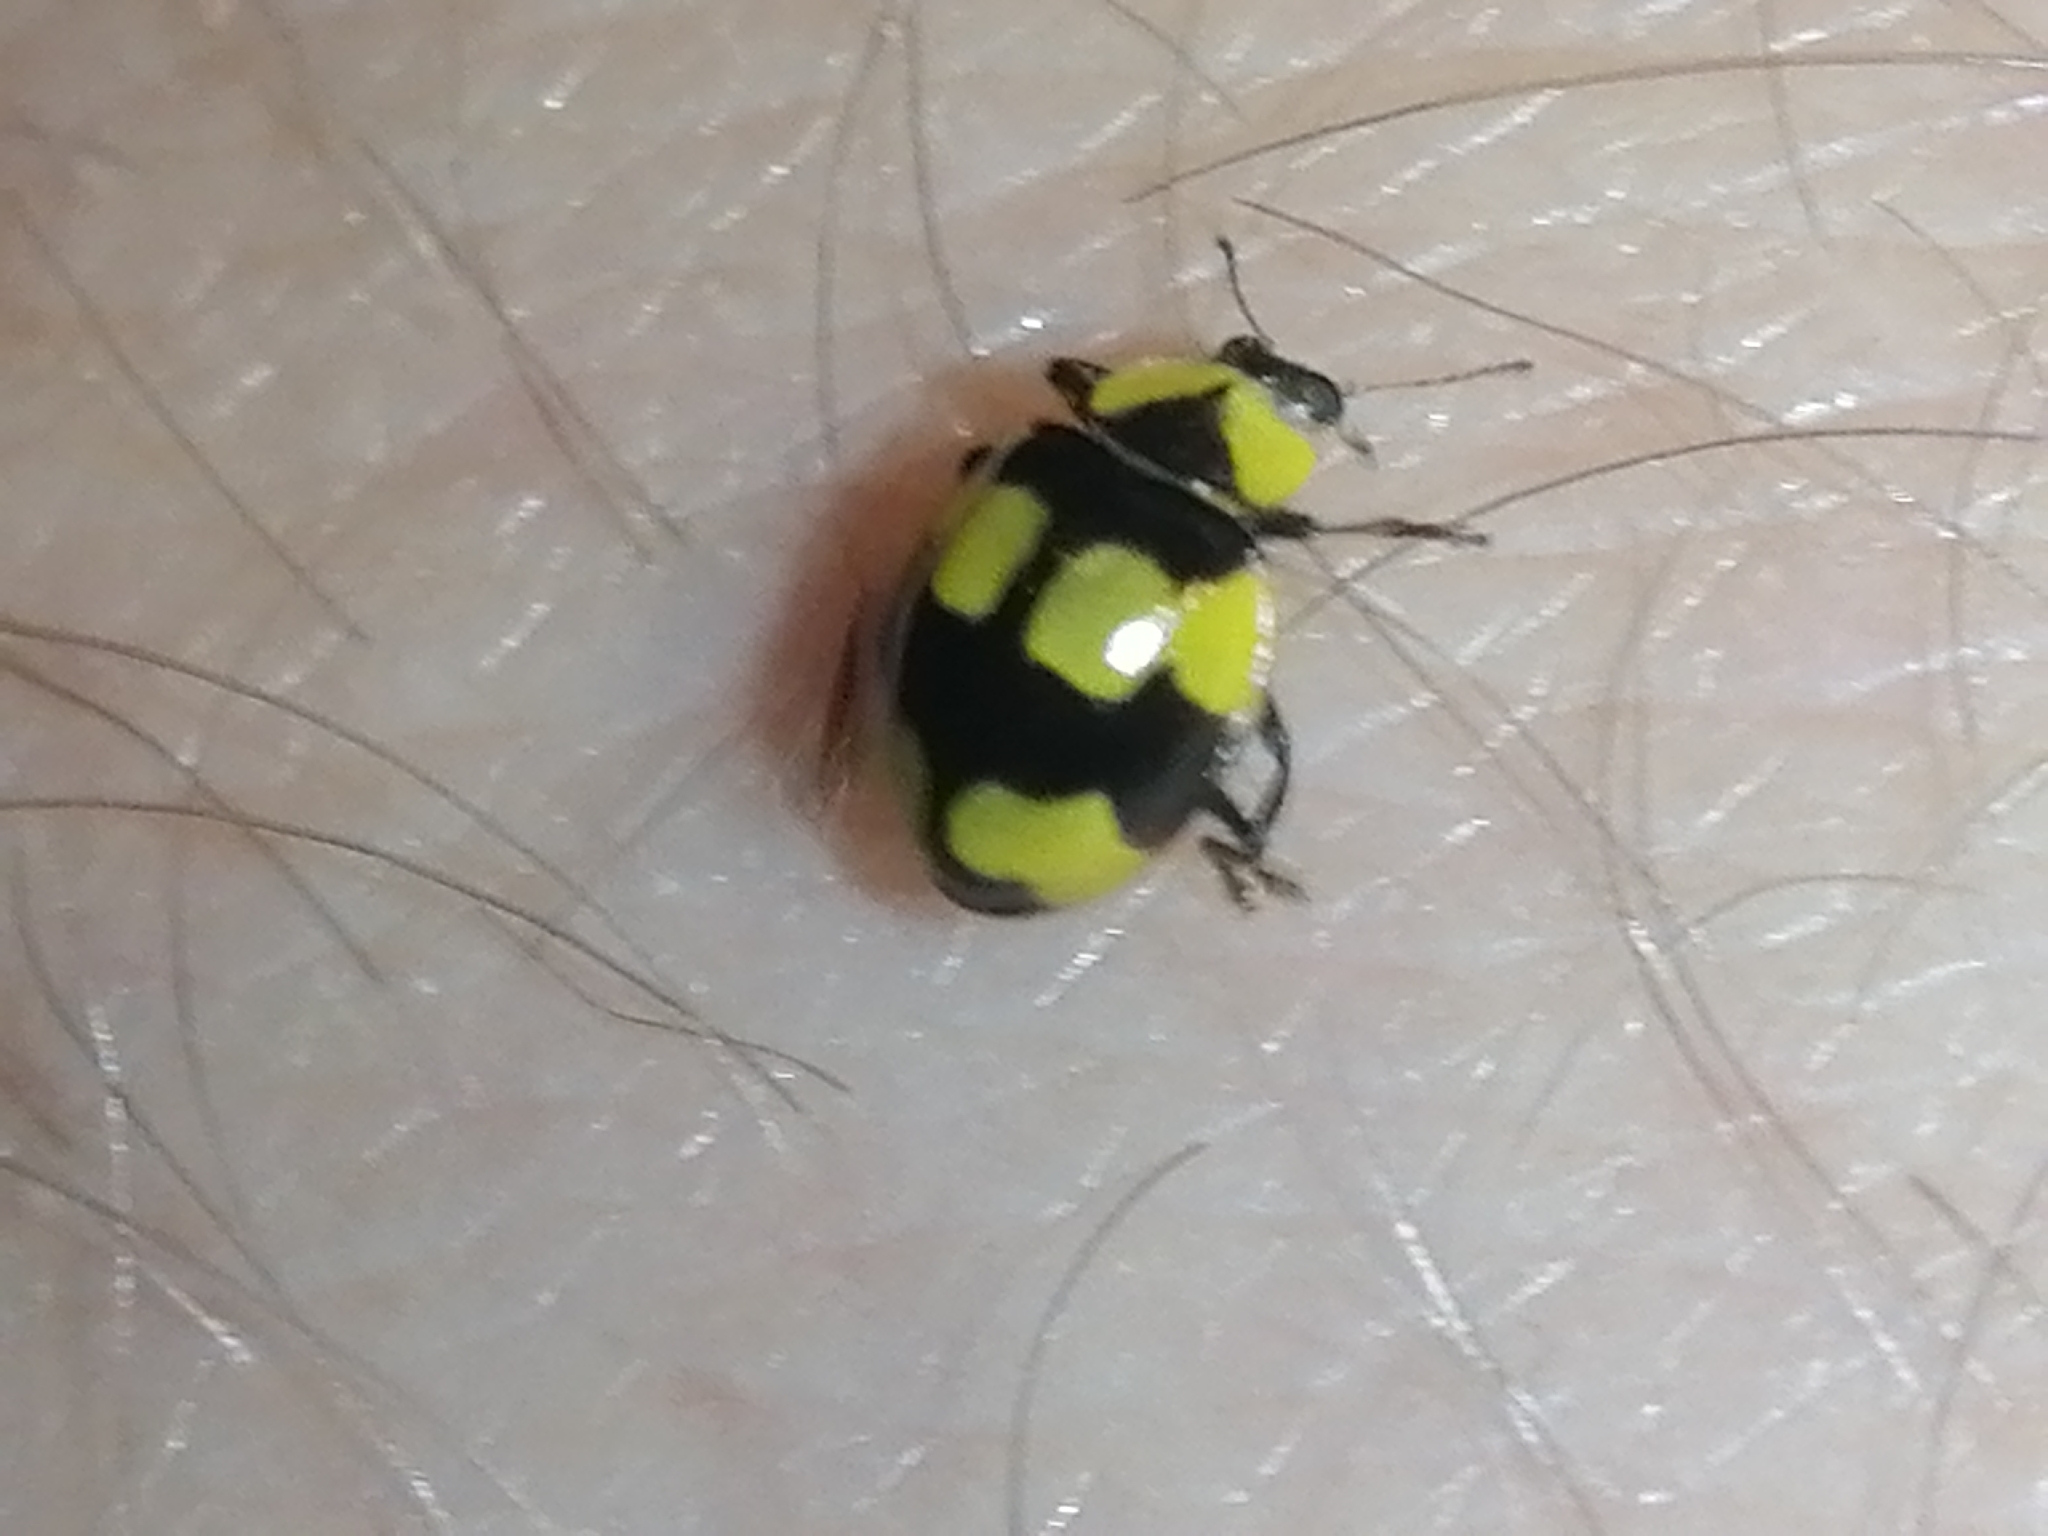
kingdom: Animalia
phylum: Arthropoda
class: Insecta
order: Coleoptera
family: Coccinellidae
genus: Illeis
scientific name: Illeis galbula
